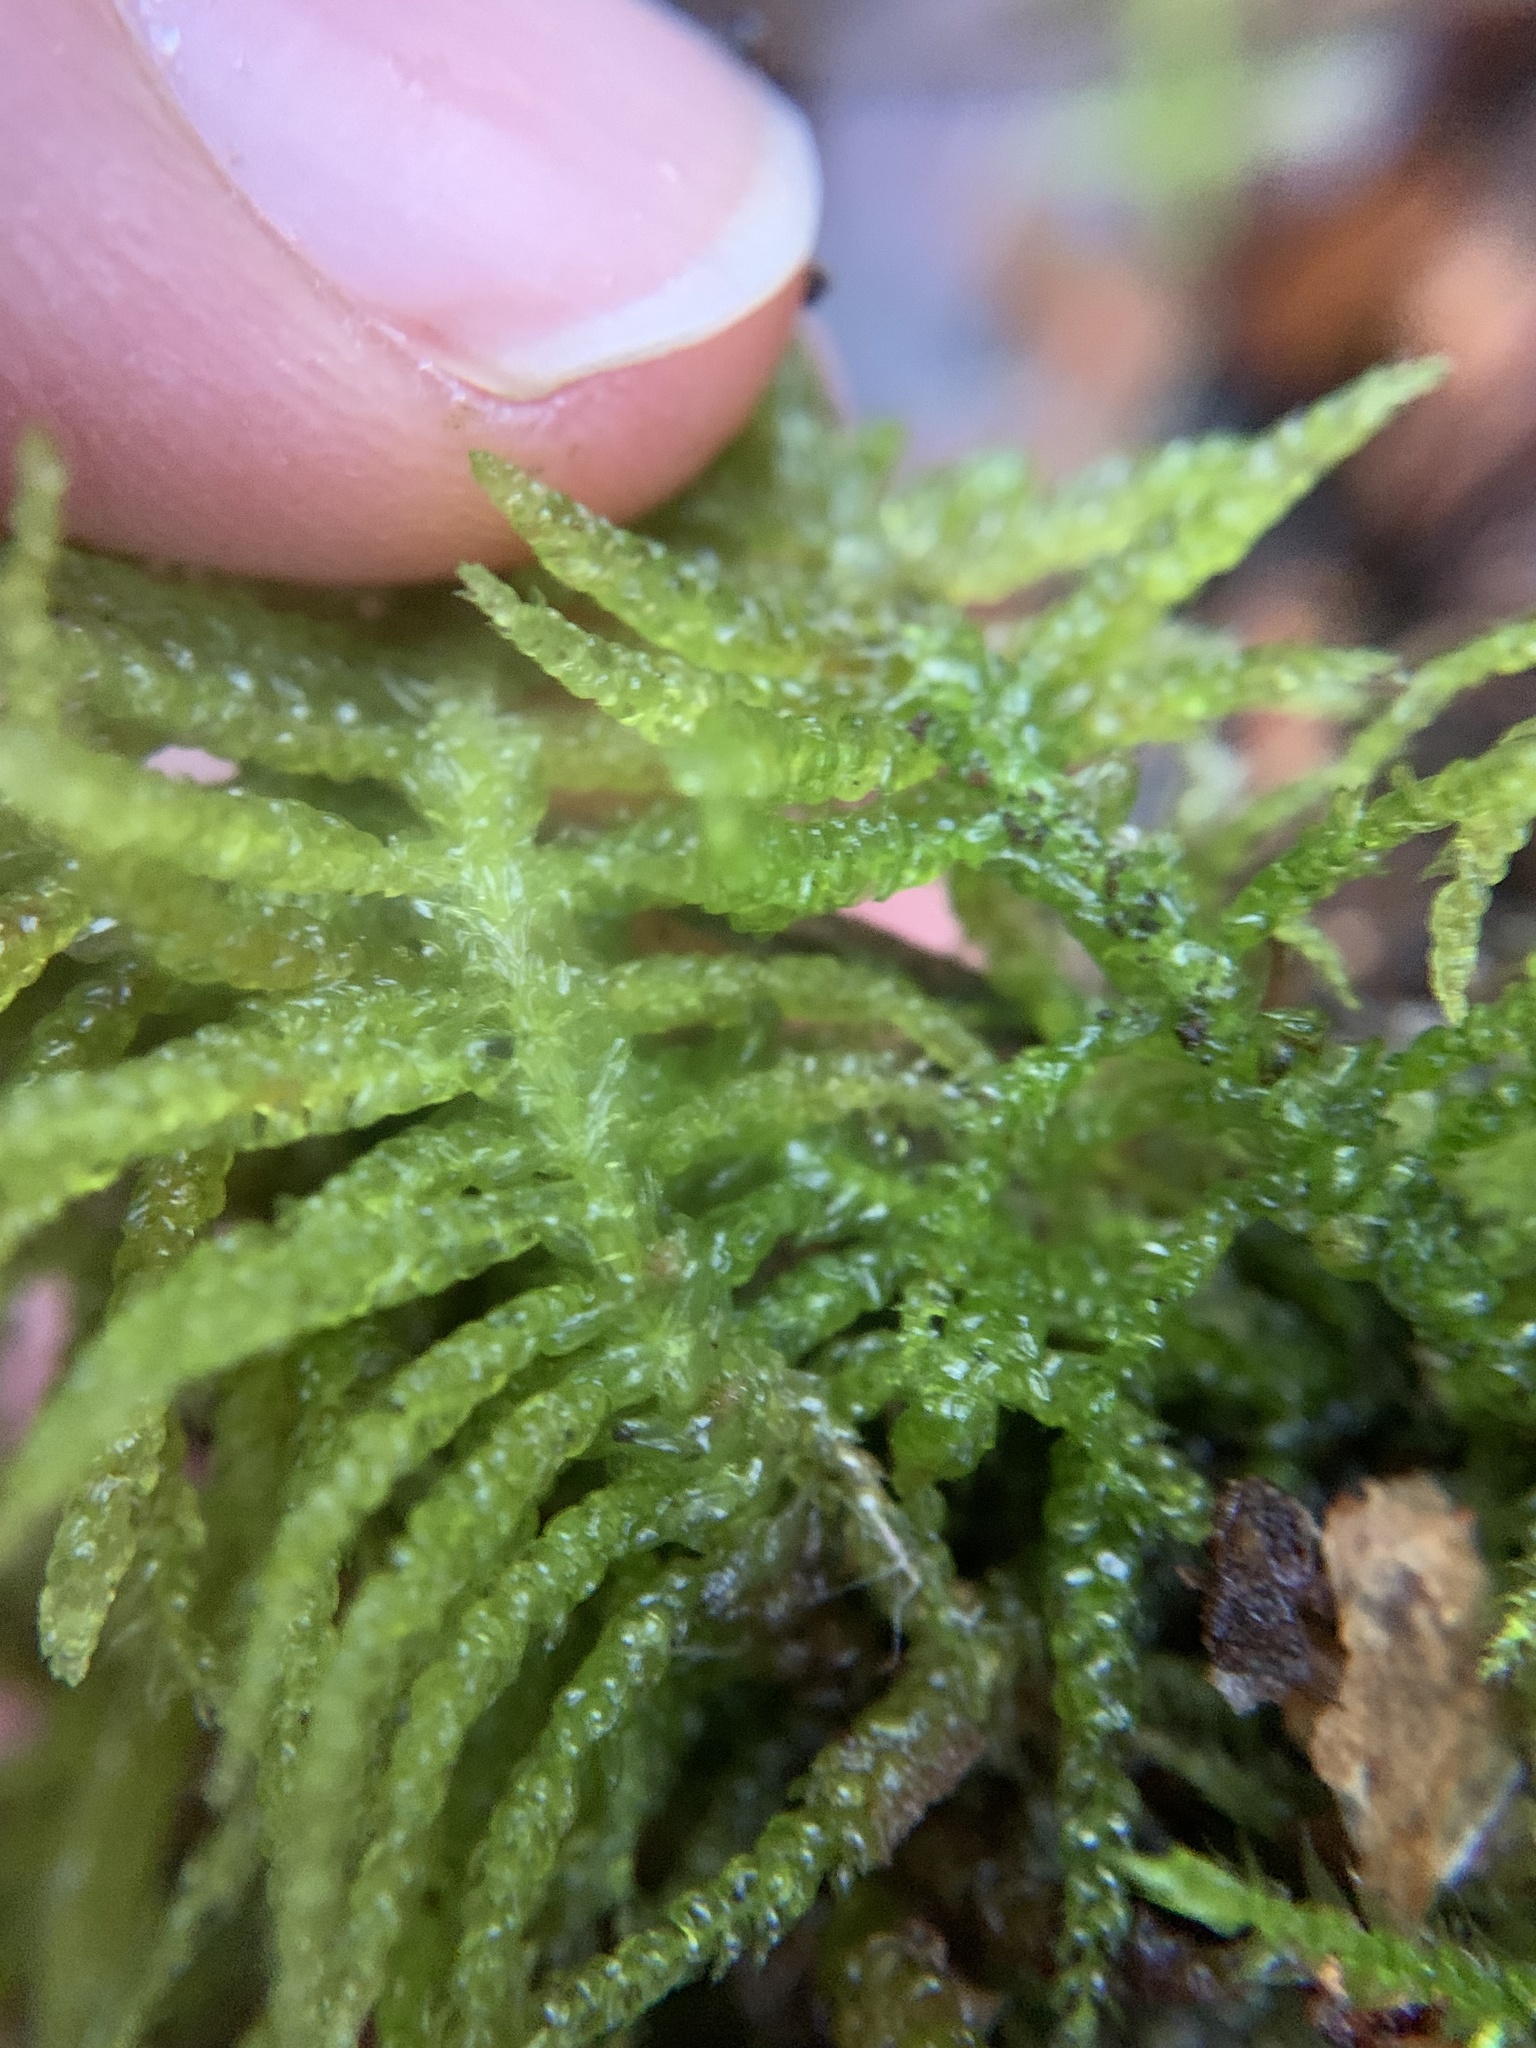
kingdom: Plantae
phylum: Bryophyta
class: Bryopsida
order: Hypnales
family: Brachytheciaceae
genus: Pseudoscleropodium
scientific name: Pseudoscleropodium purum
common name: Neat feather-moss
